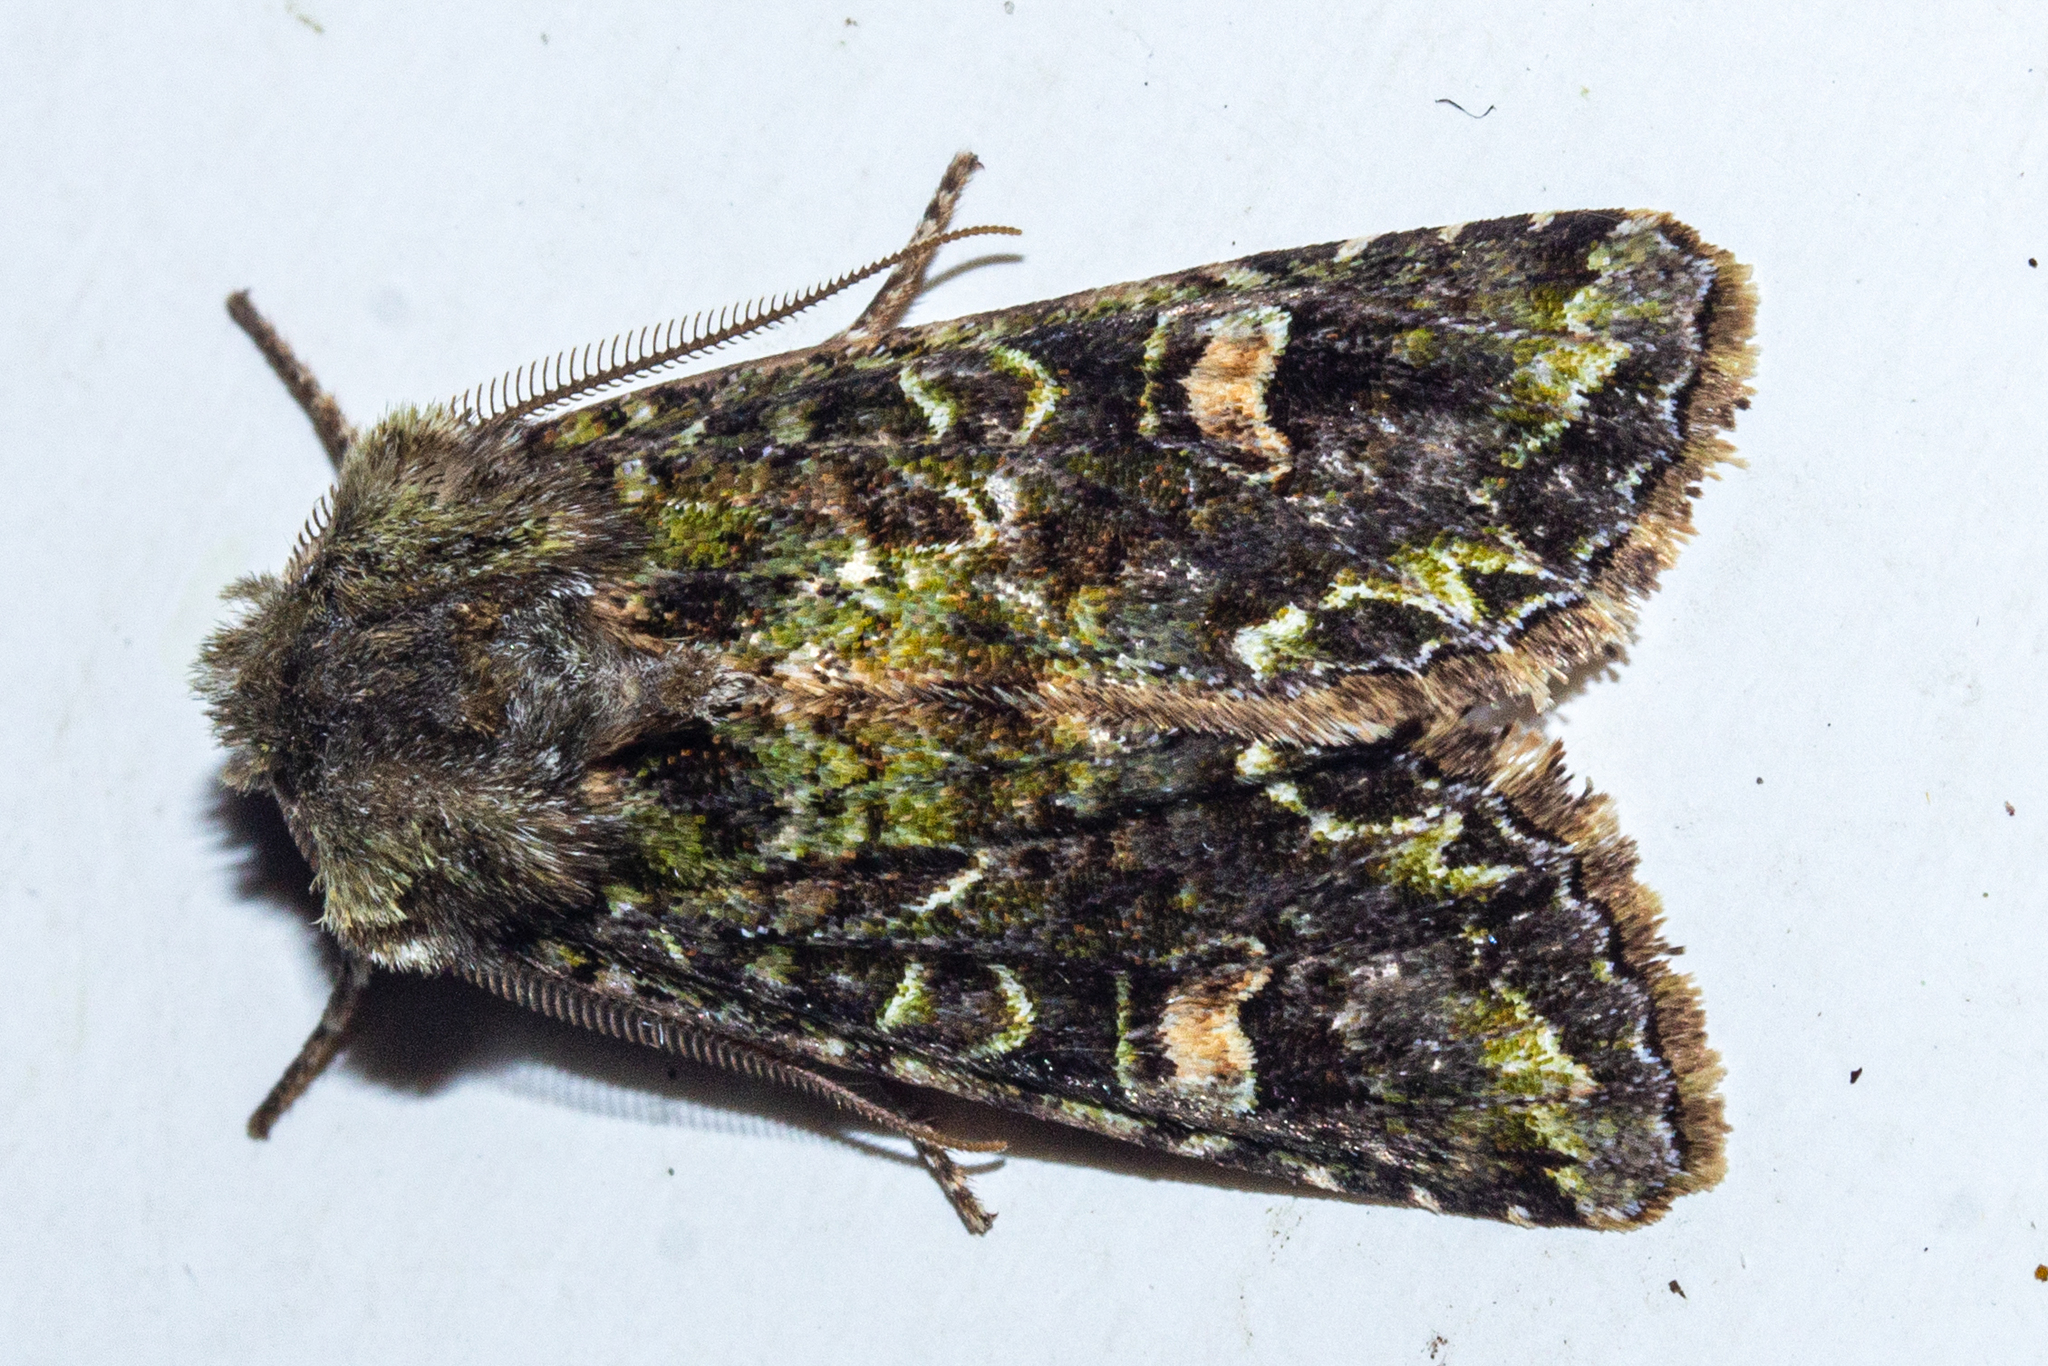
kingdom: Animalia
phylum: Arthropoda
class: Insecta
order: Lepidoptera
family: Noctuidae
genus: Ichneutica
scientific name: Ichneutica skelloni
